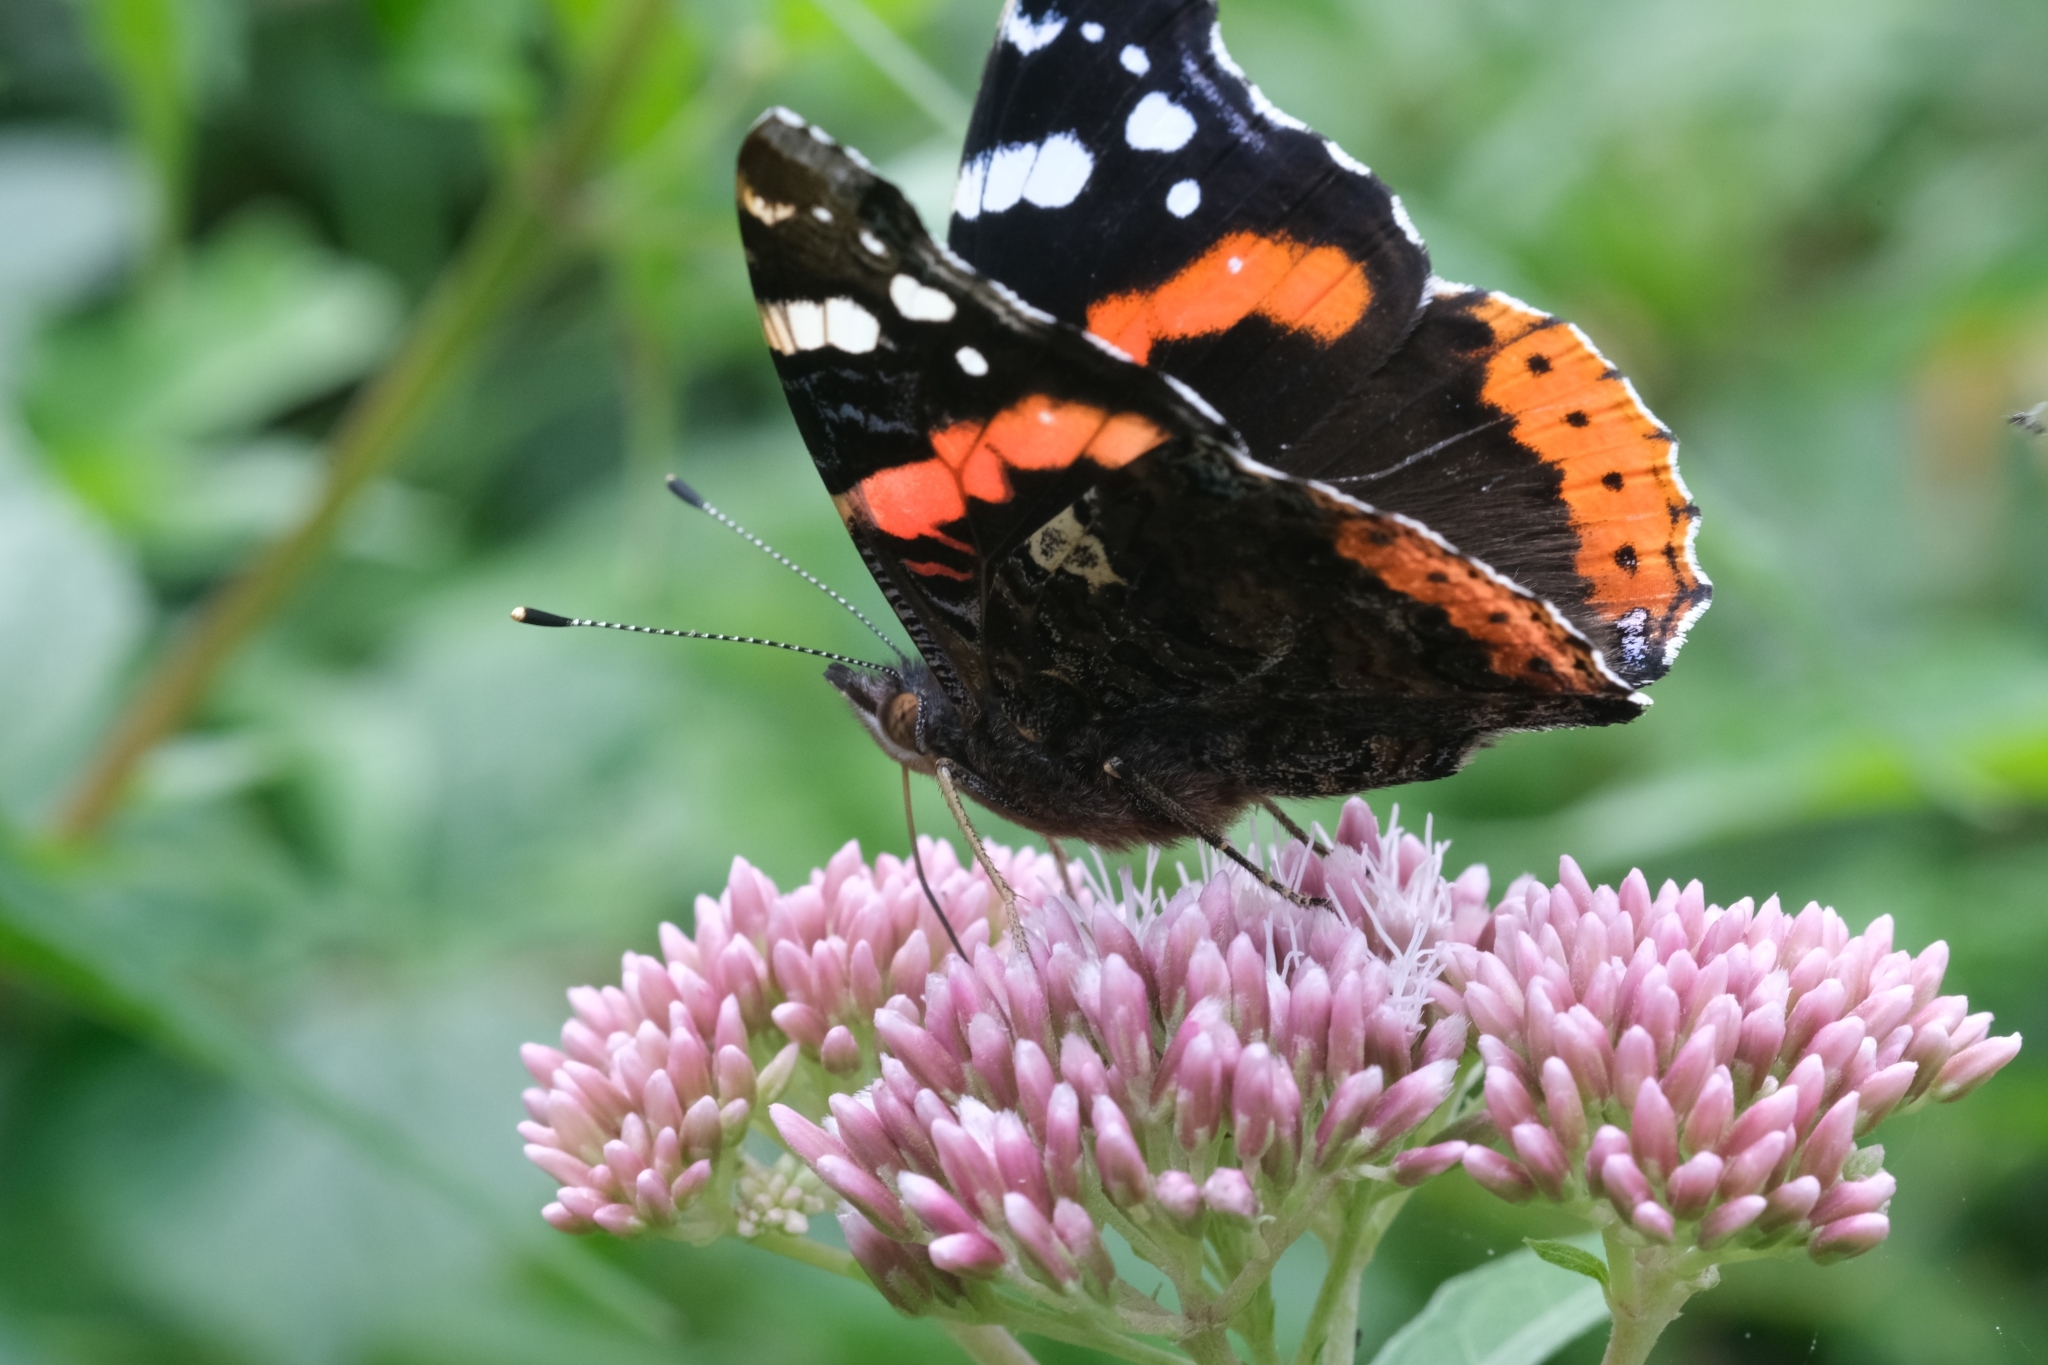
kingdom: Animalia
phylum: Arthropoda
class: Insecta
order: Lepidoptera
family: Nymphalidae
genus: Vanessa
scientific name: Vanessa atalanta
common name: Red admiral
